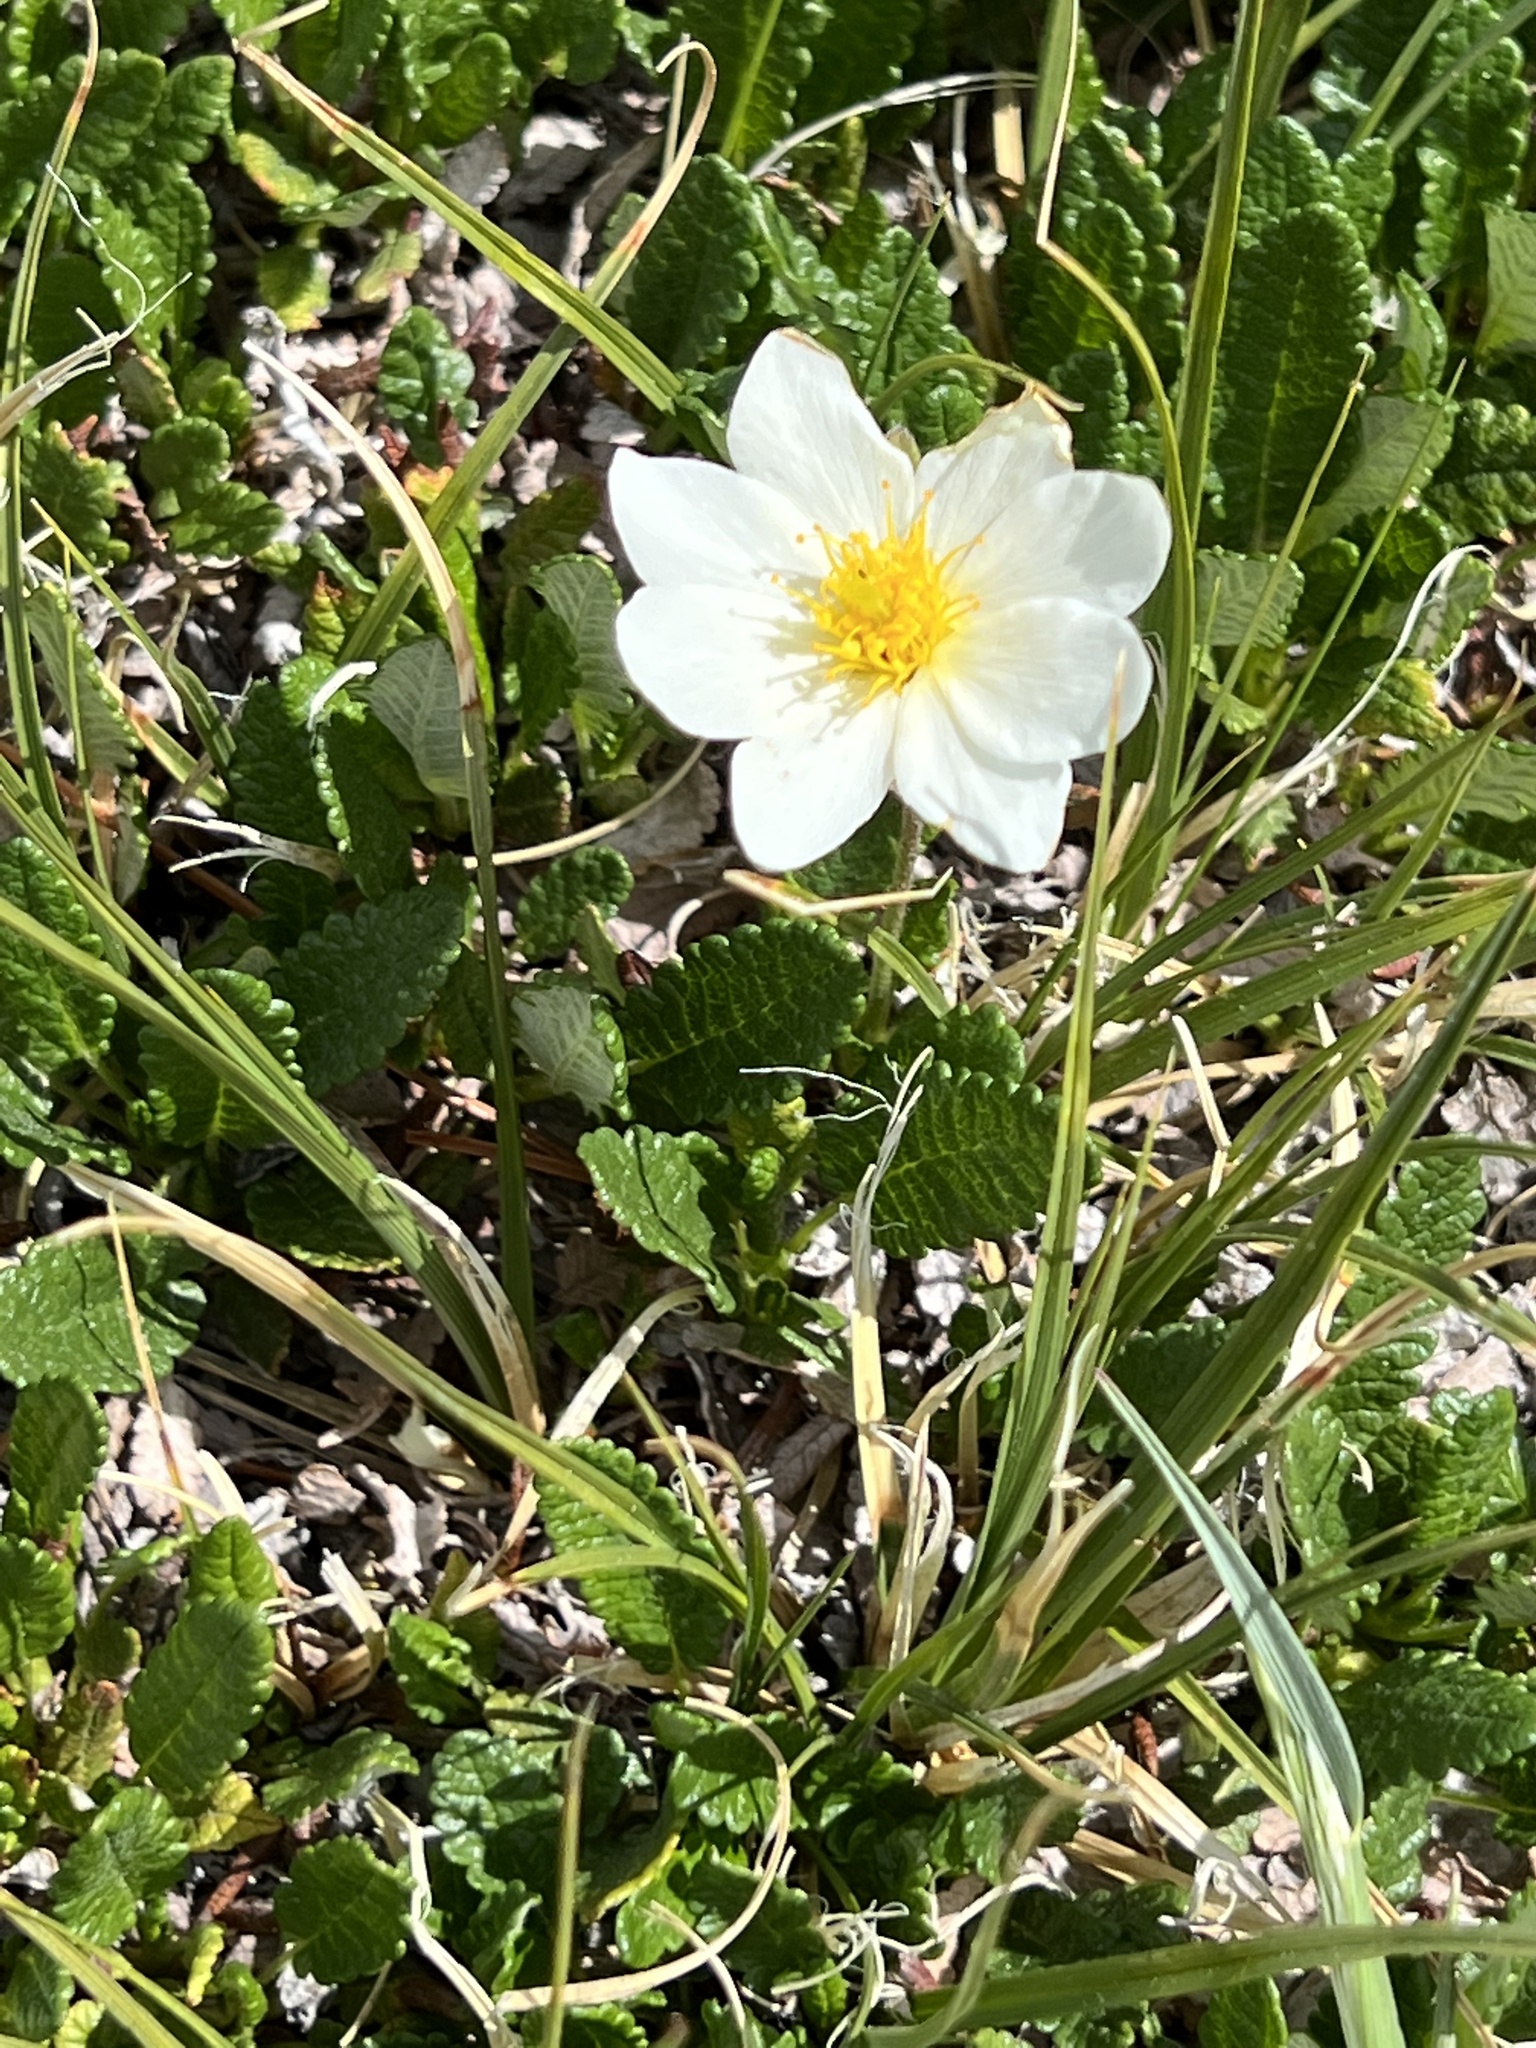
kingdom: Plantae
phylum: Tracheophyta
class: Magnoliopsida
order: Rosales
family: Rosaceae
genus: Dryas
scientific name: Dryas octopetala
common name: Eight-petal mountain-avens
